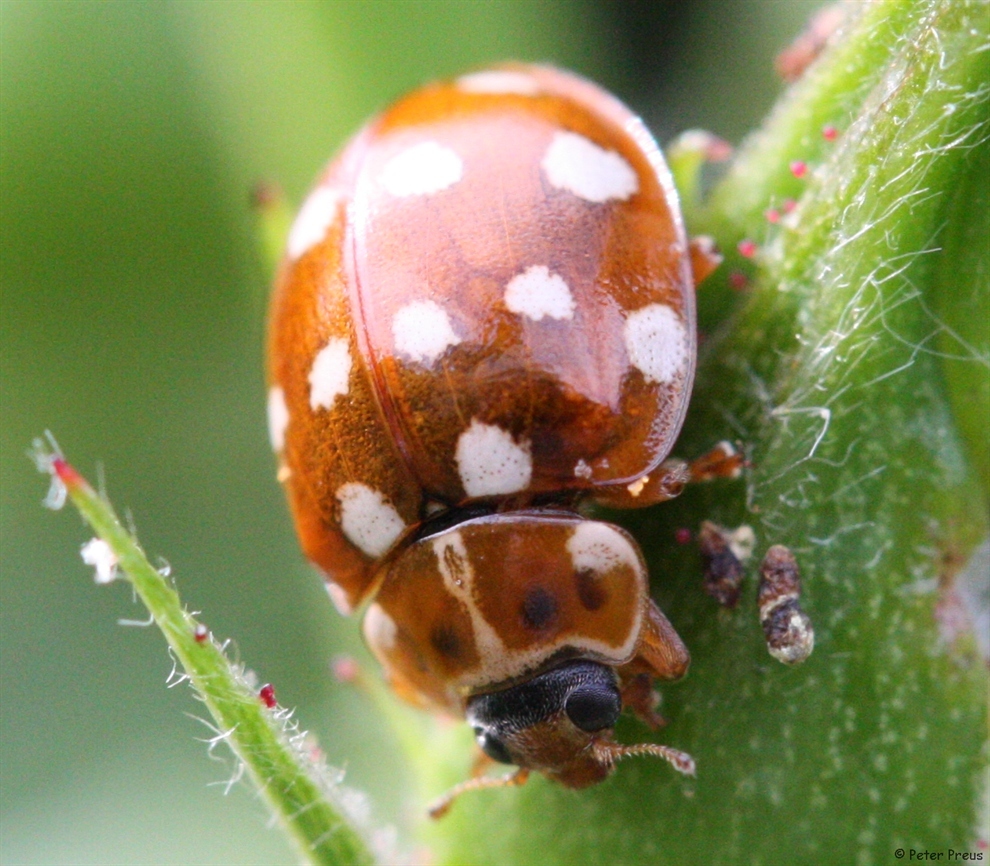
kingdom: Animalia
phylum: Arthropoda
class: Insecta
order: Coleoptera
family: Coccinellidae
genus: Calvia
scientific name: Calvia quatuordecimguttata
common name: Cream-spot ladybird
